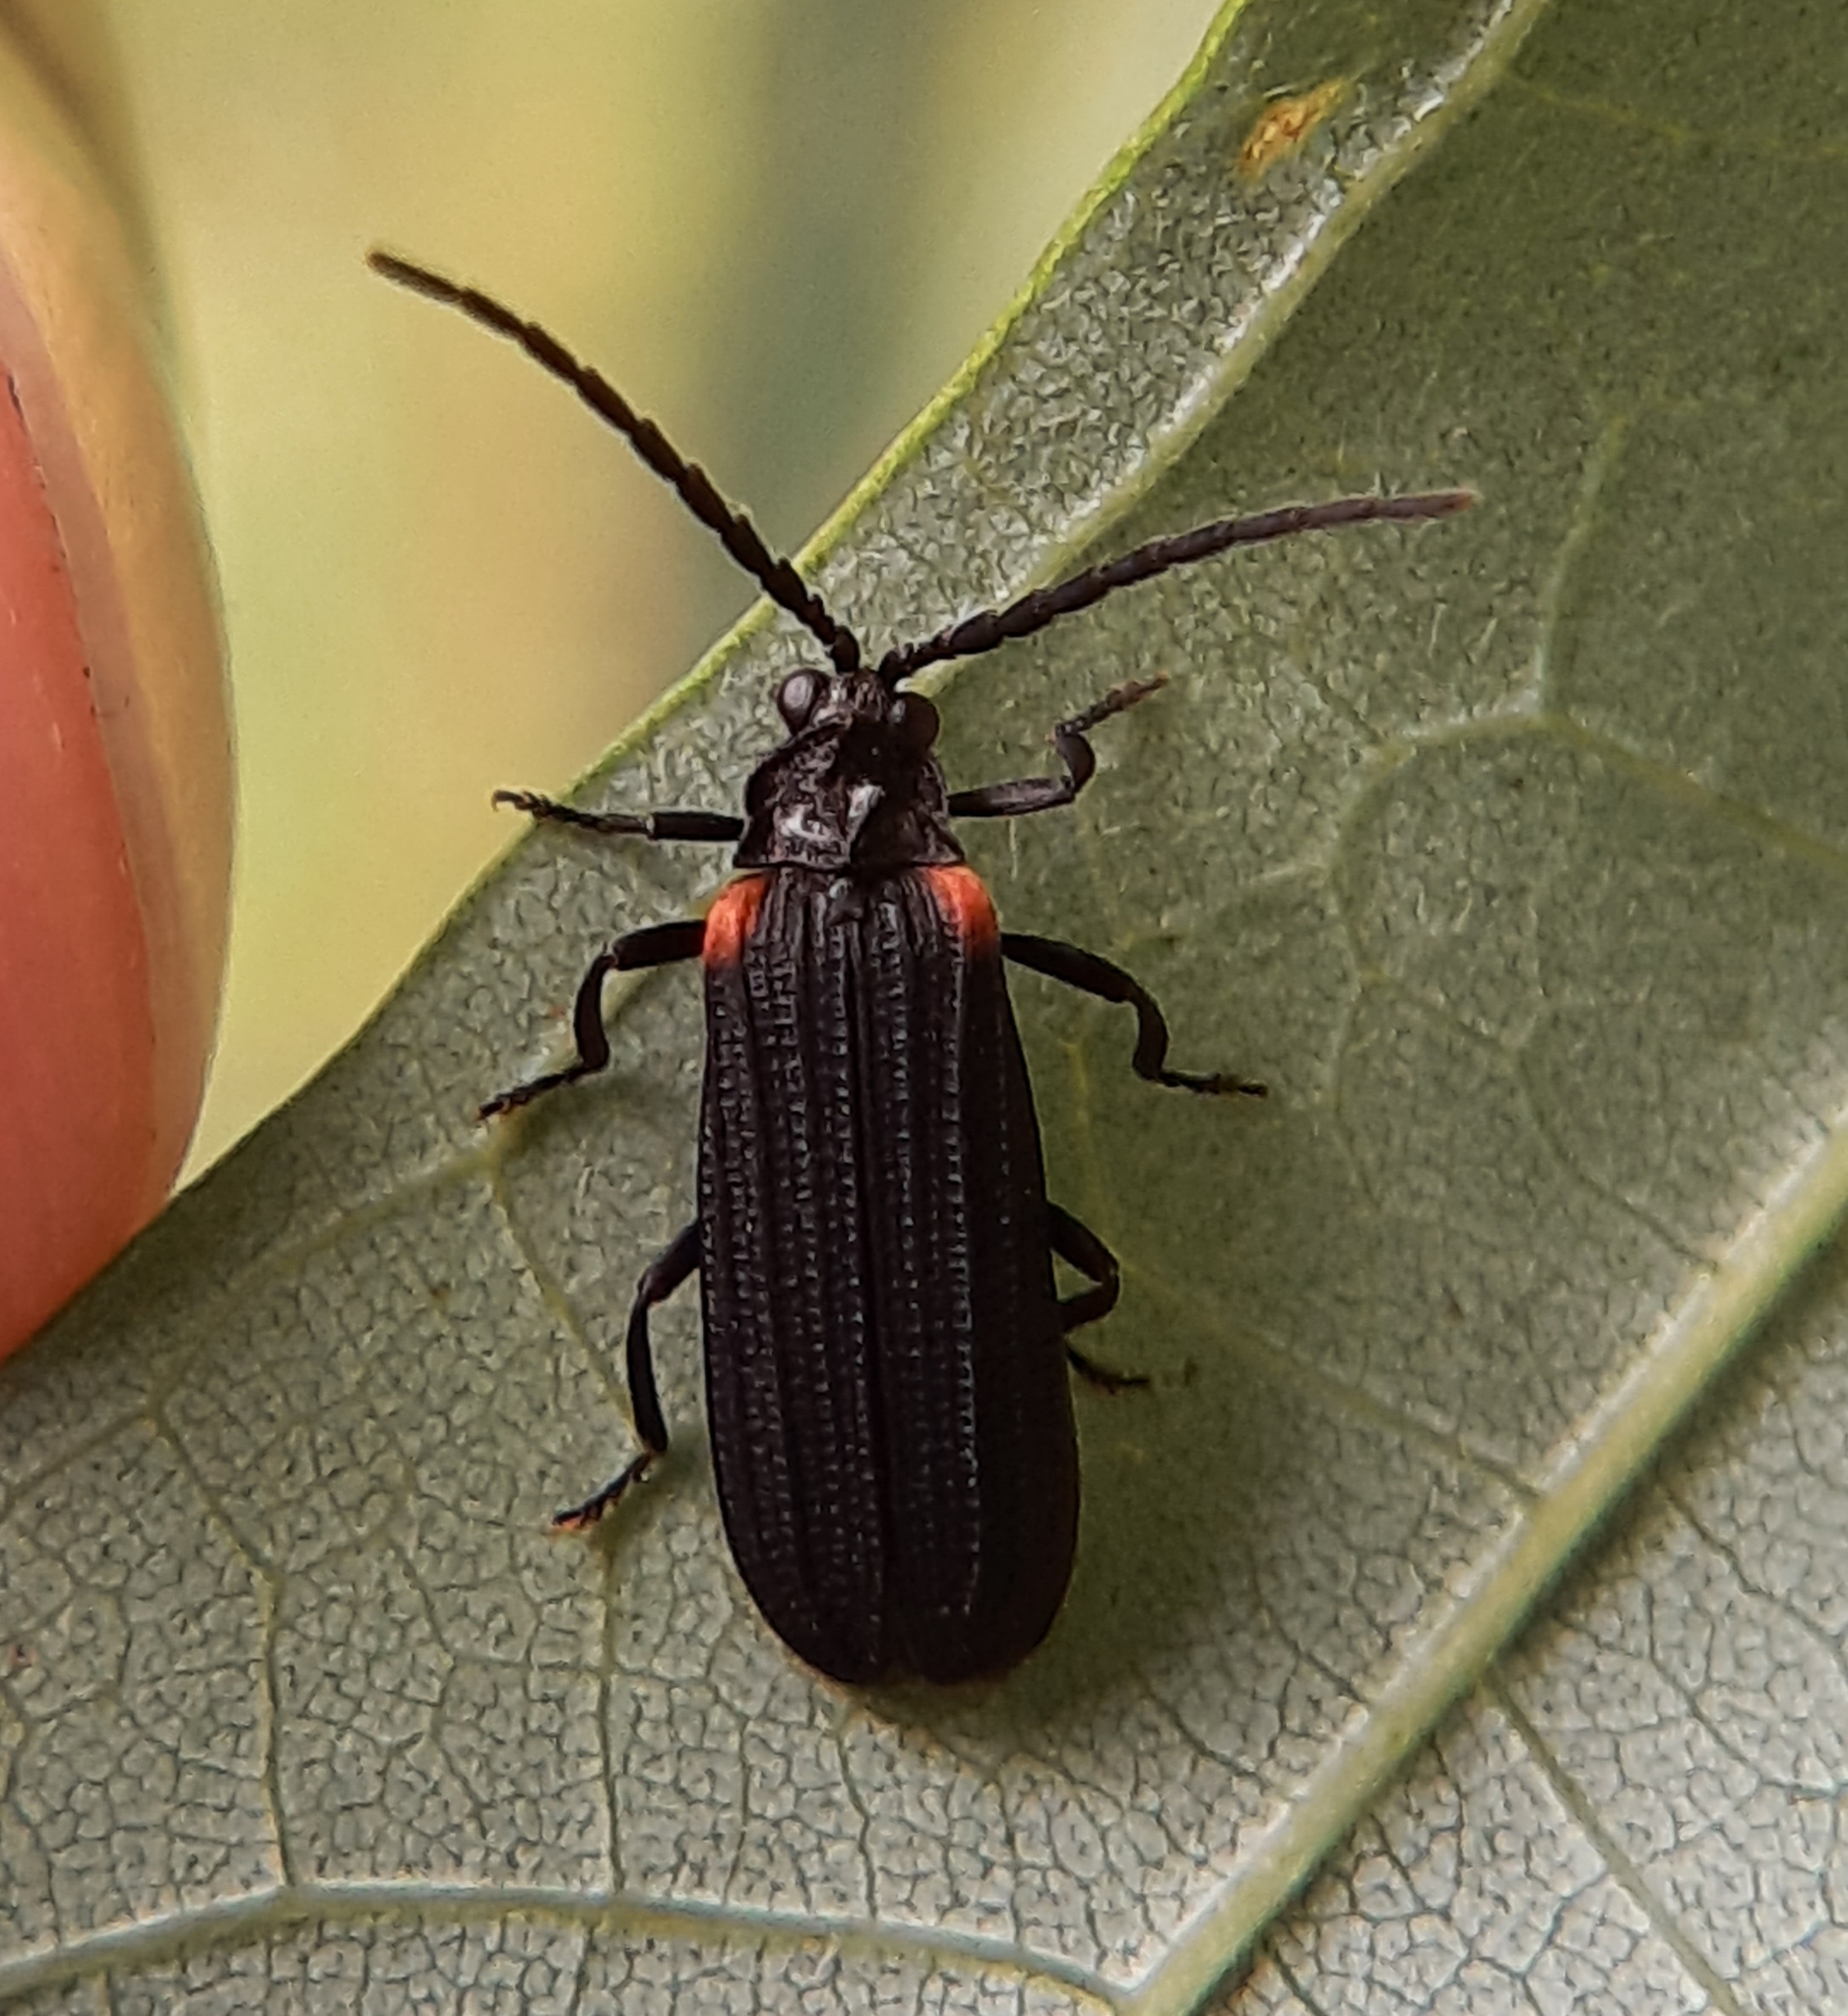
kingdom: Animalia
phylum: Arthropoda
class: Insecta
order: Coleoptera
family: Lycidae
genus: Greenarus
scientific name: Greenarus thoracicus
